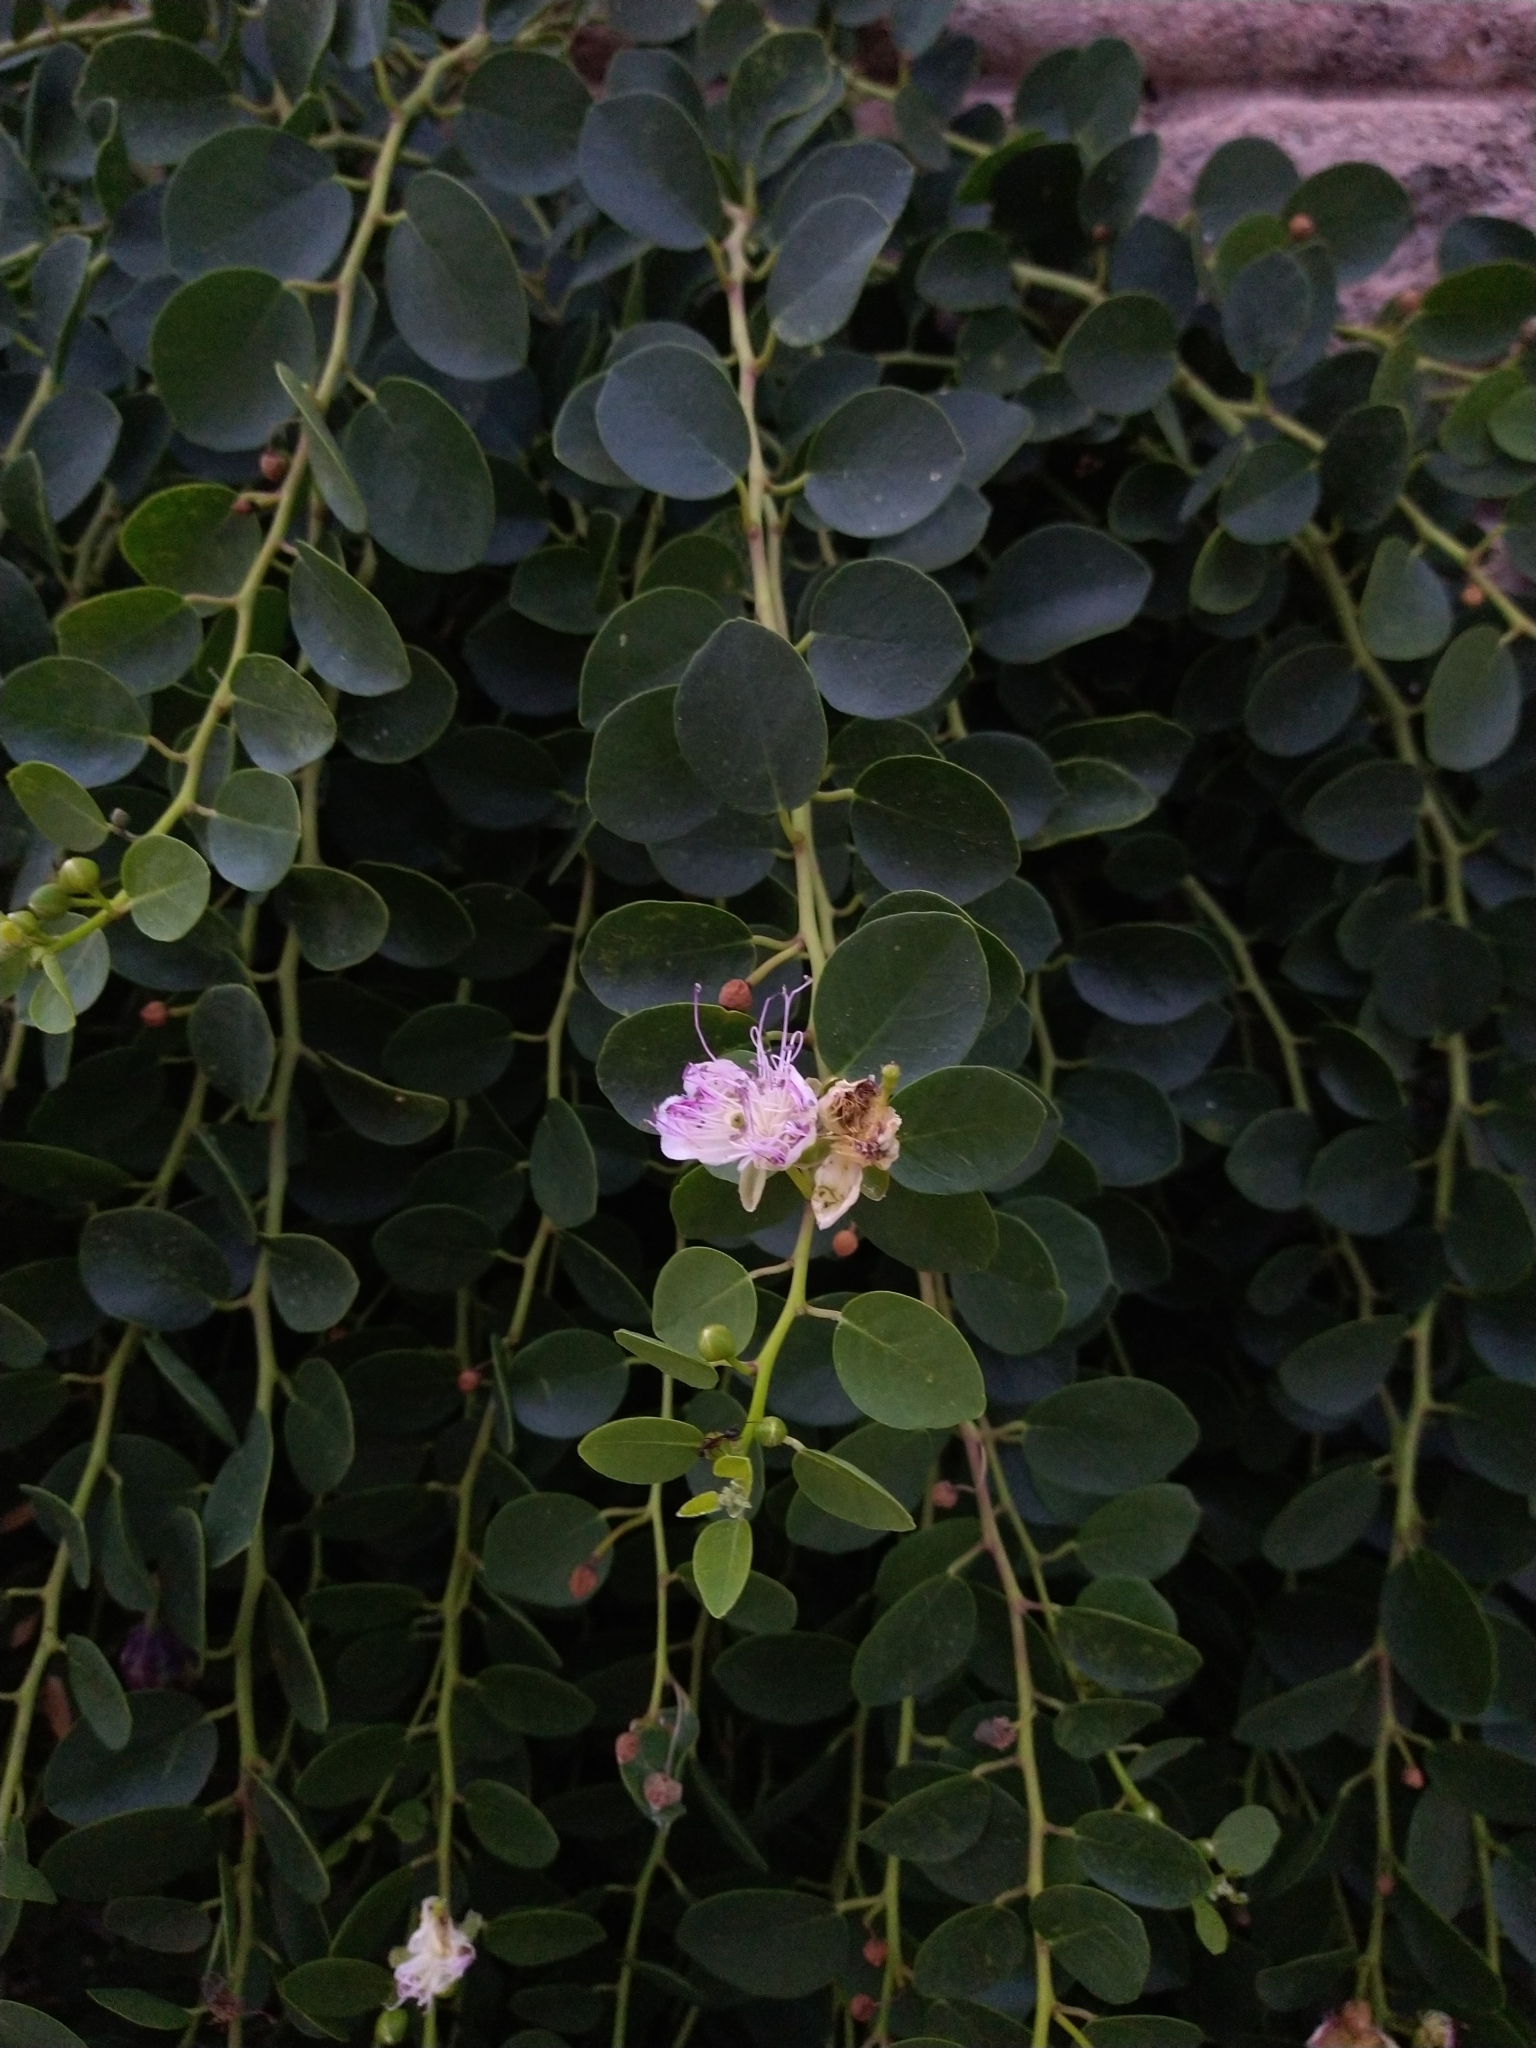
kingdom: Plantae
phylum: Tracheophyta
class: Magnoliopsida
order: Brassicales
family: Capparaceae
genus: Capparis
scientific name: Capparis orientalis
